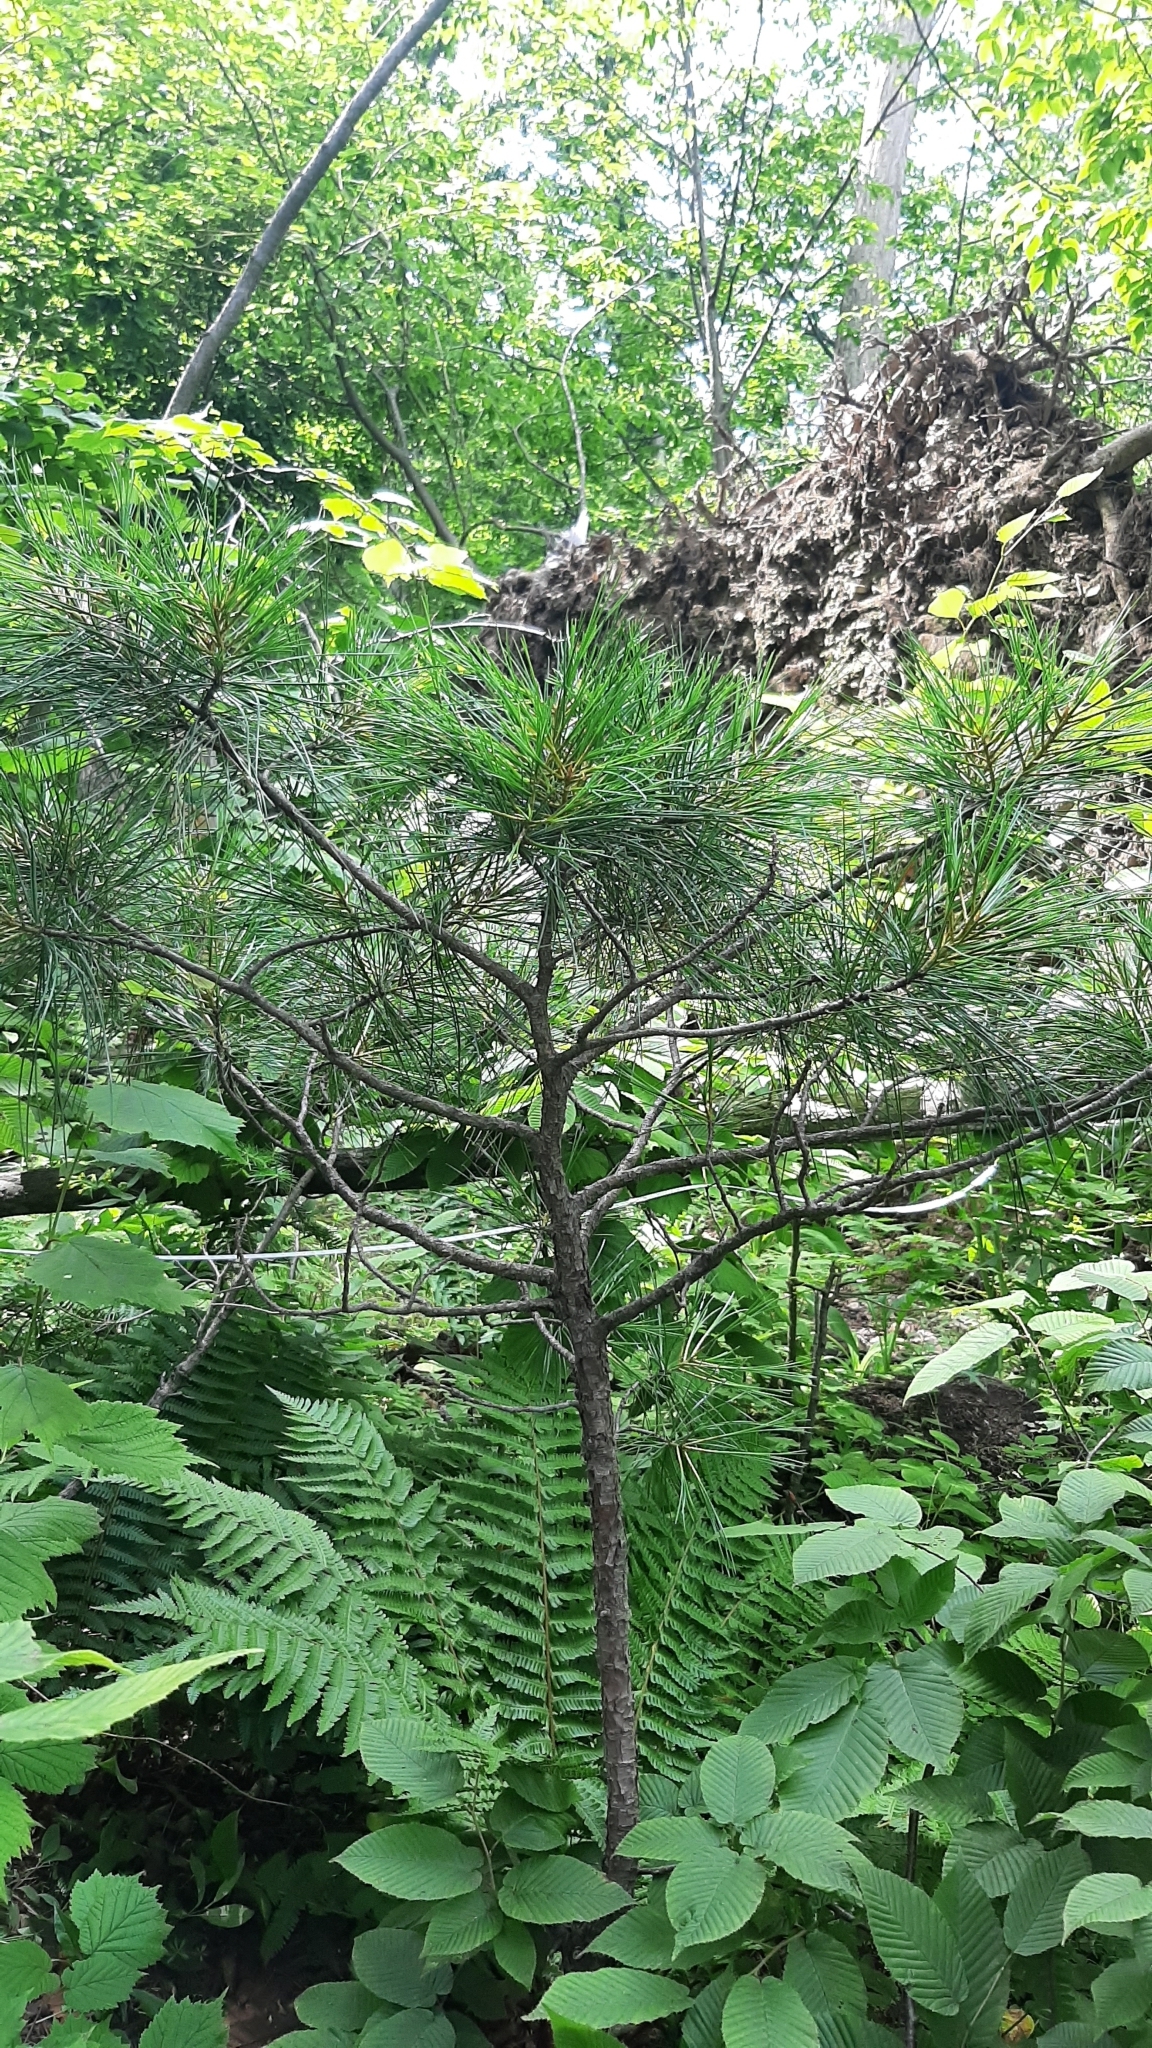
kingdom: Plantae
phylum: Tracheophyta
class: Pinopsida
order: Pinales
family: Pinaceae
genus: Pinus
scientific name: Pinus koraiensis
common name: Korean pine
